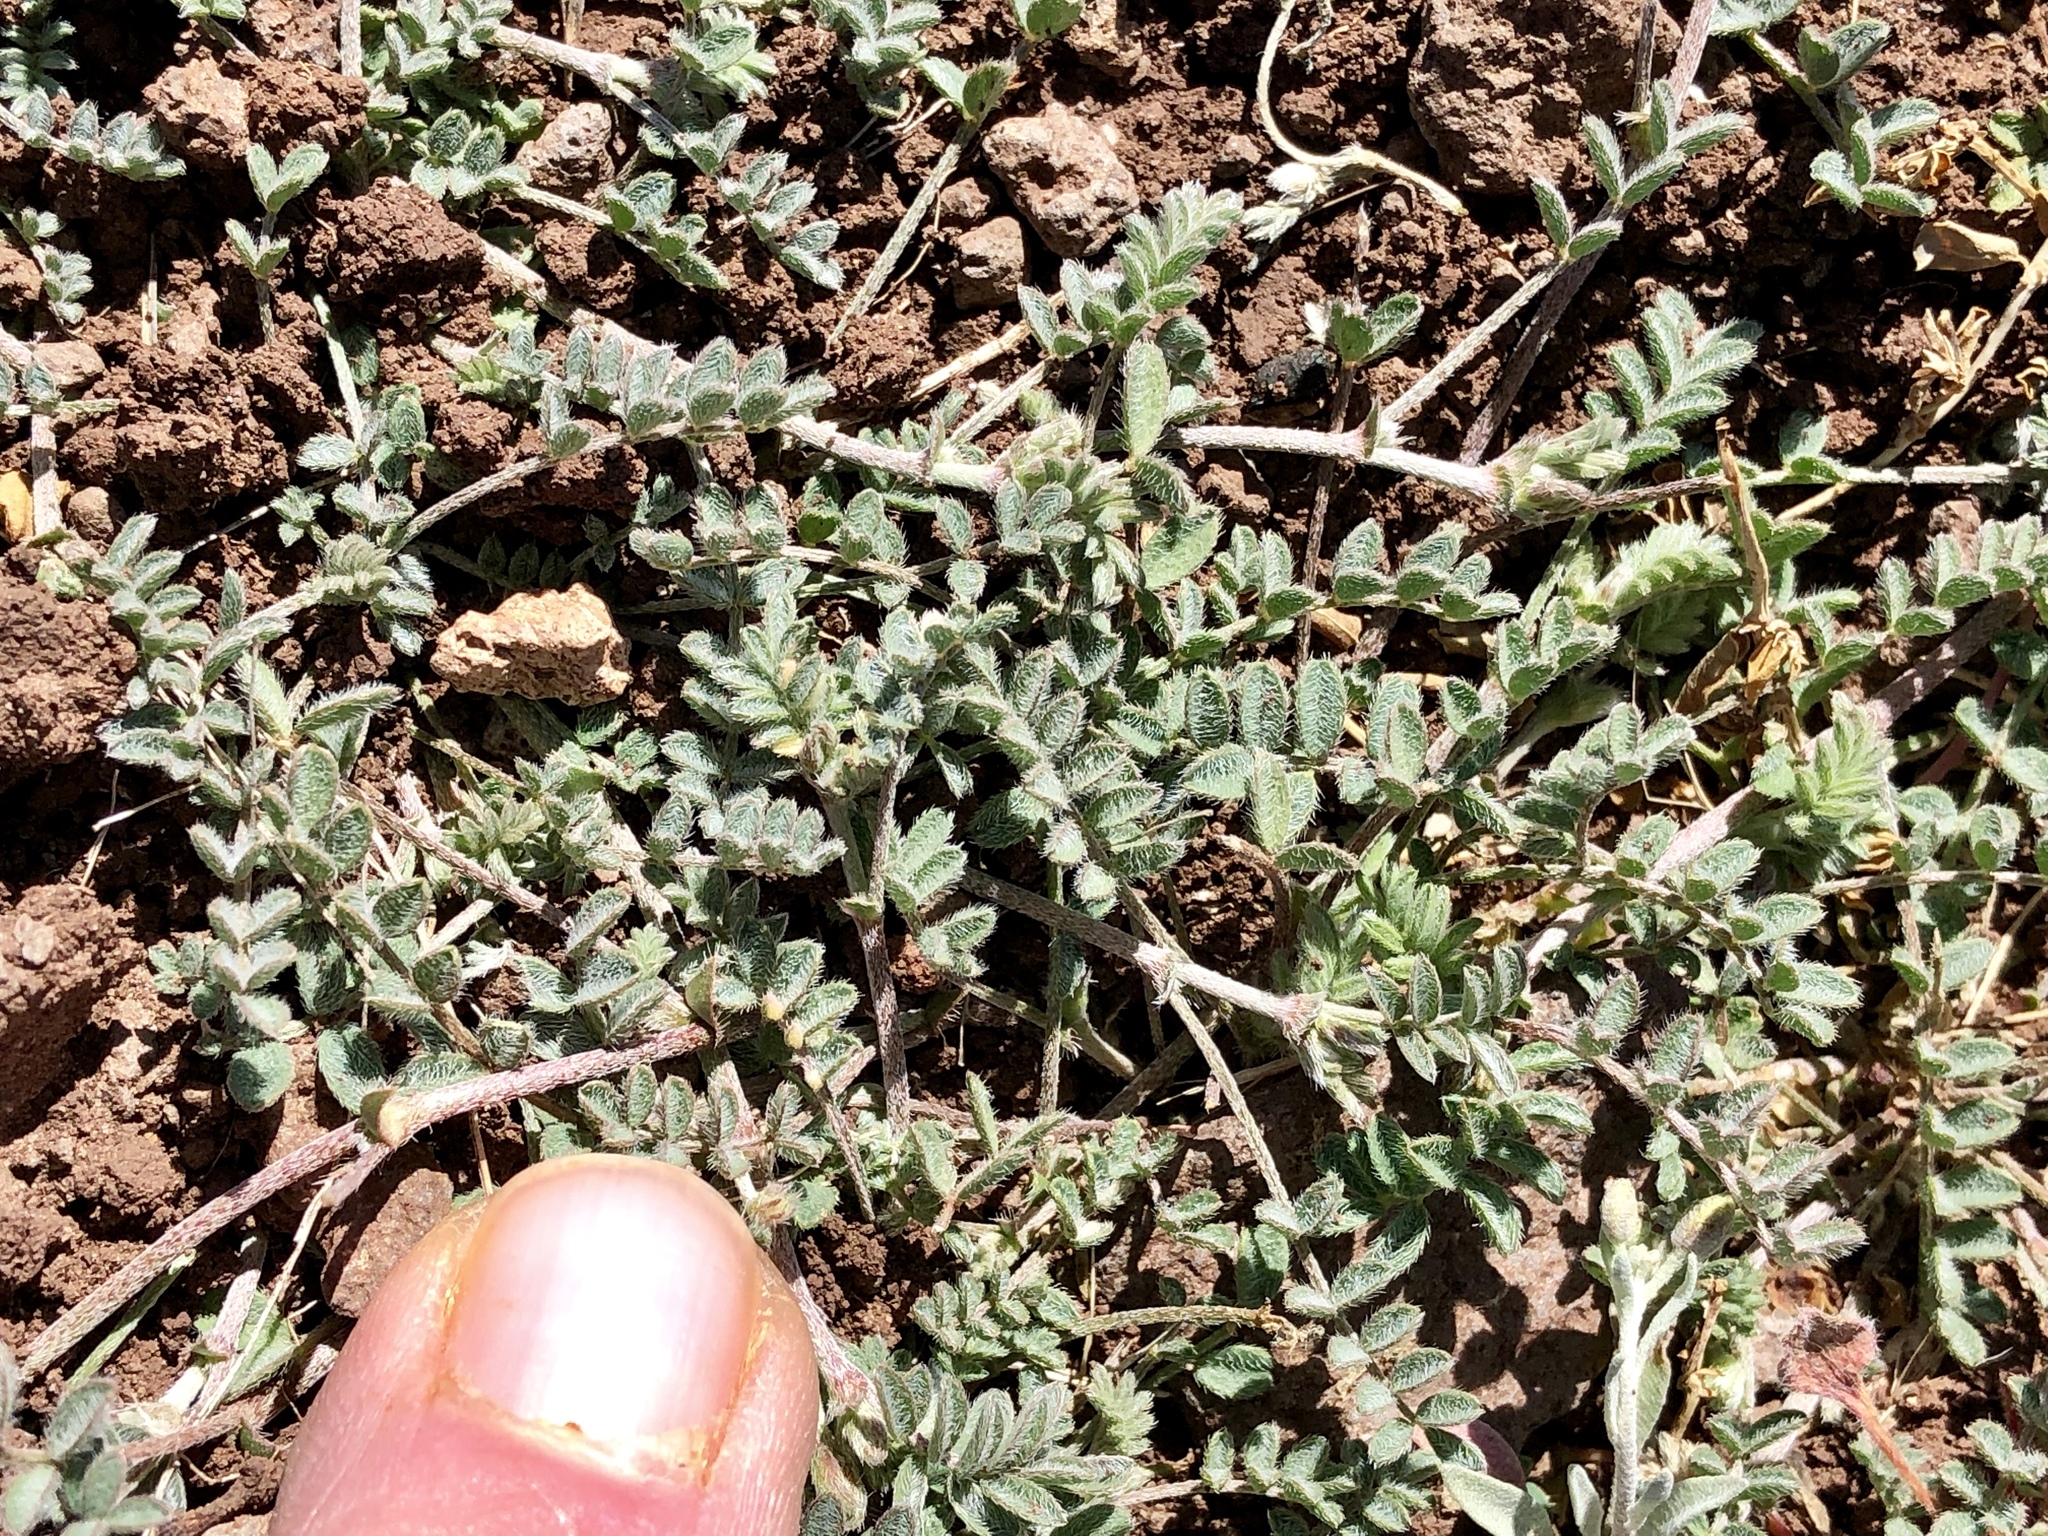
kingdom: Plantae
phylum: Tracheophyta
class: Magnoliopsida
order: Zygophyllales
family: Zygophyllaceae
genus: Tribulus
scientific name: Tribulus terrestris
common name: Puncturevine
